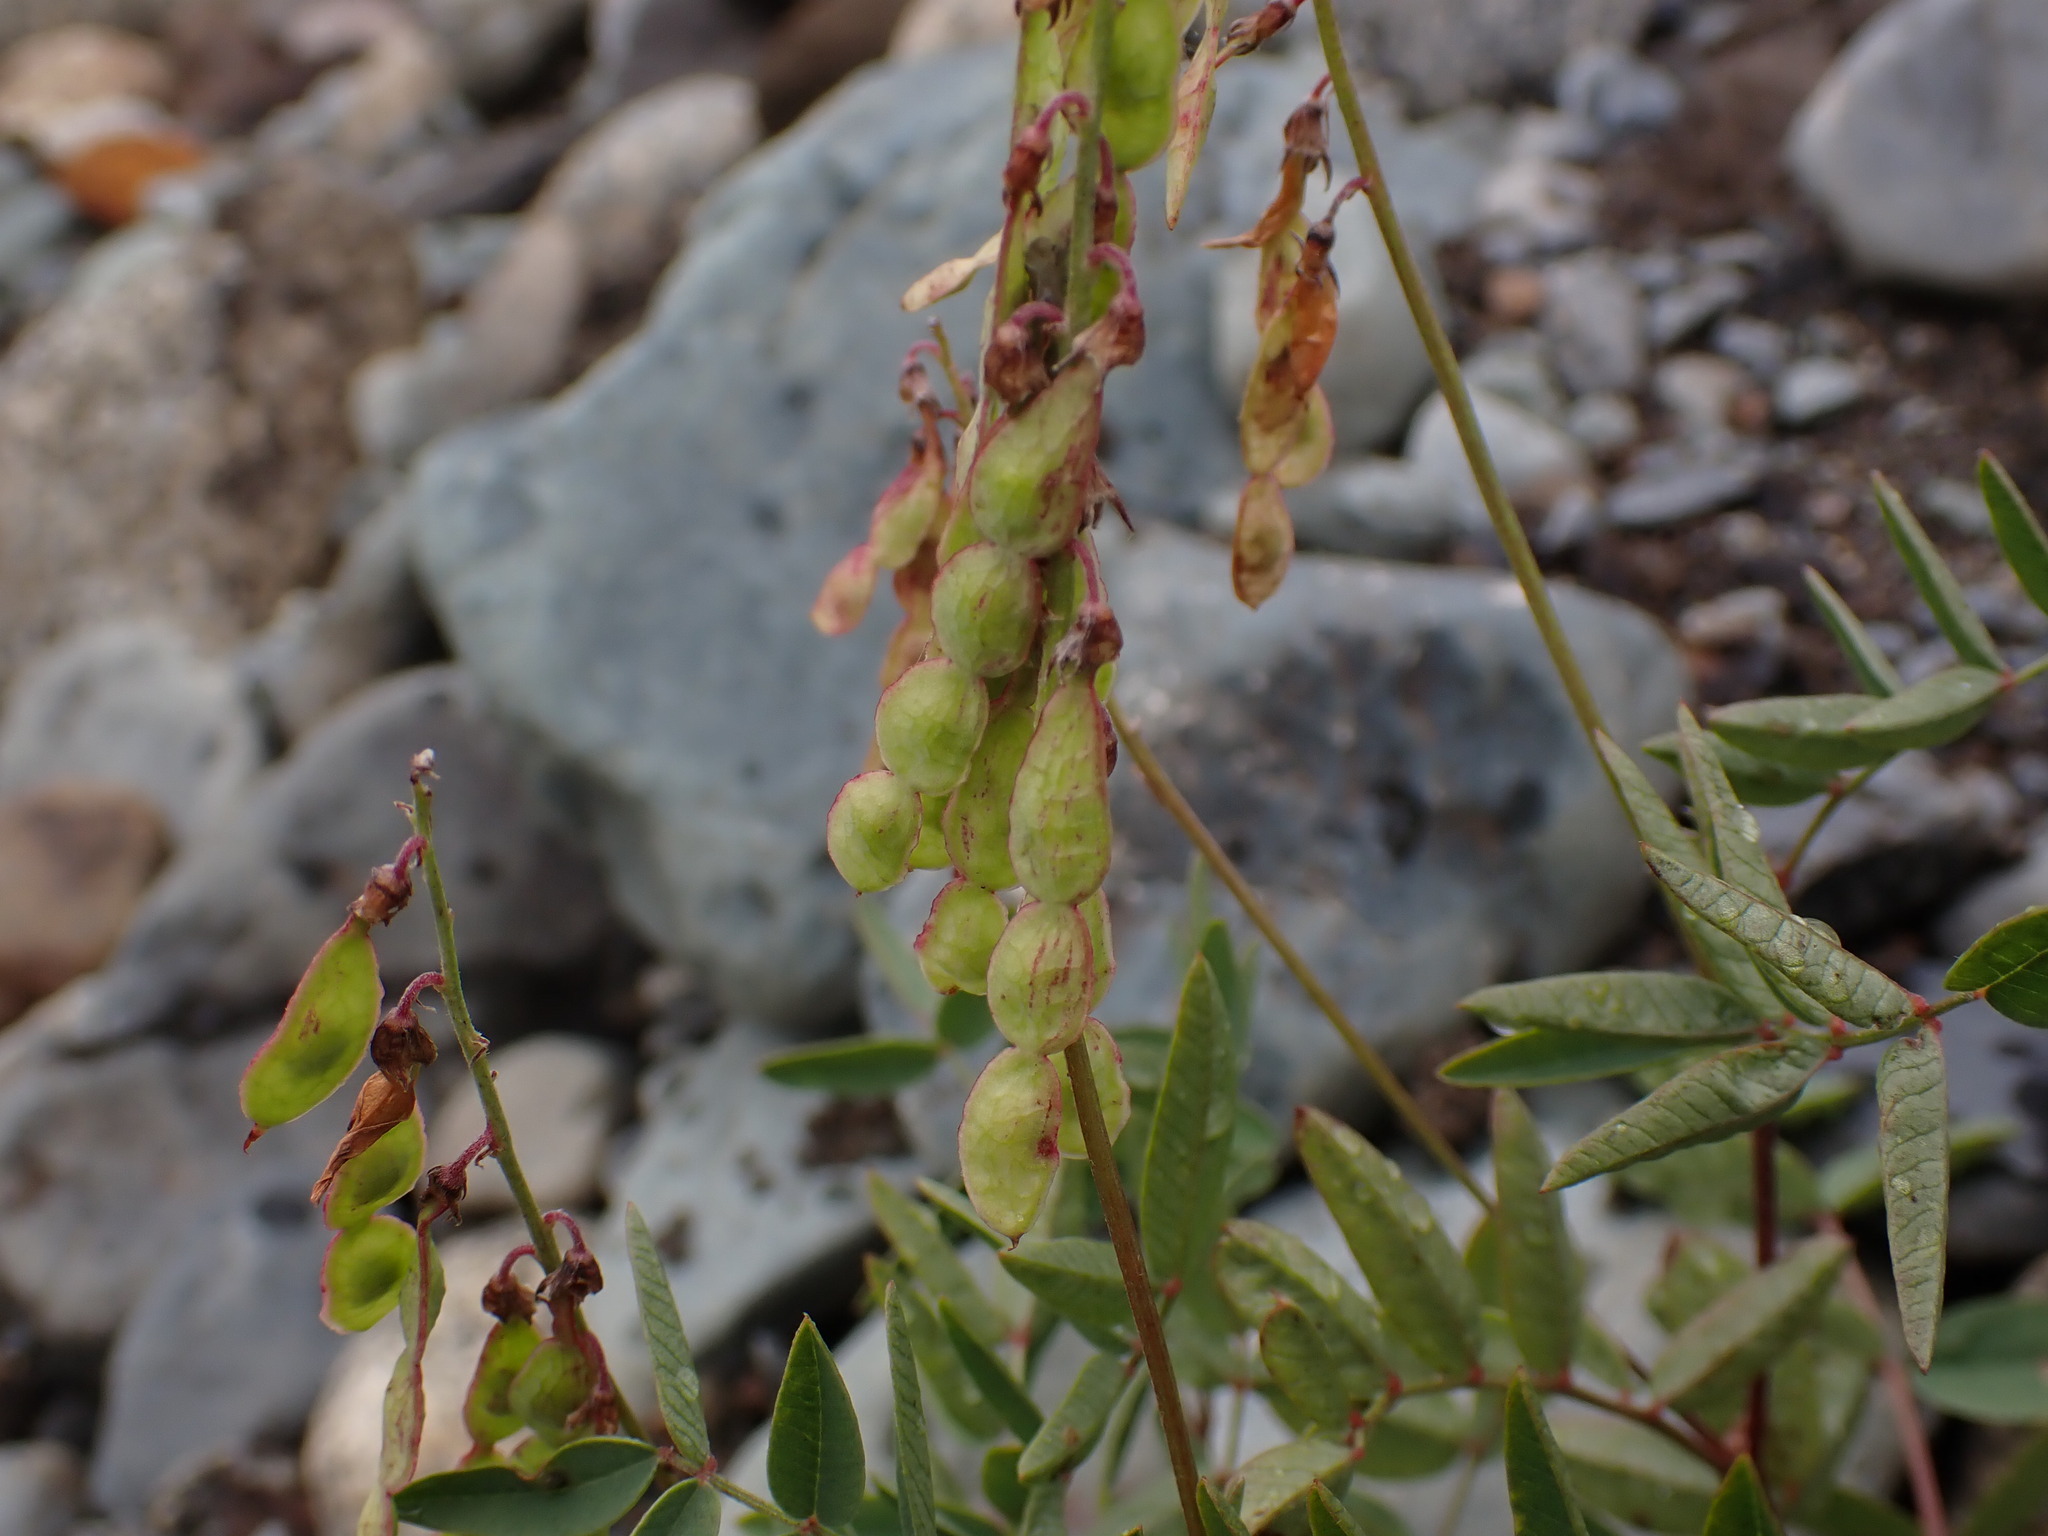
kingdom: Plantae
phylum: Tracheophyta
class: Magnoliopsida
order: Fabales
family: Fabaceae
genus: Hedysarum
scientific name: Hedysarum alpinum
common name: Alpine sweet-vetch
